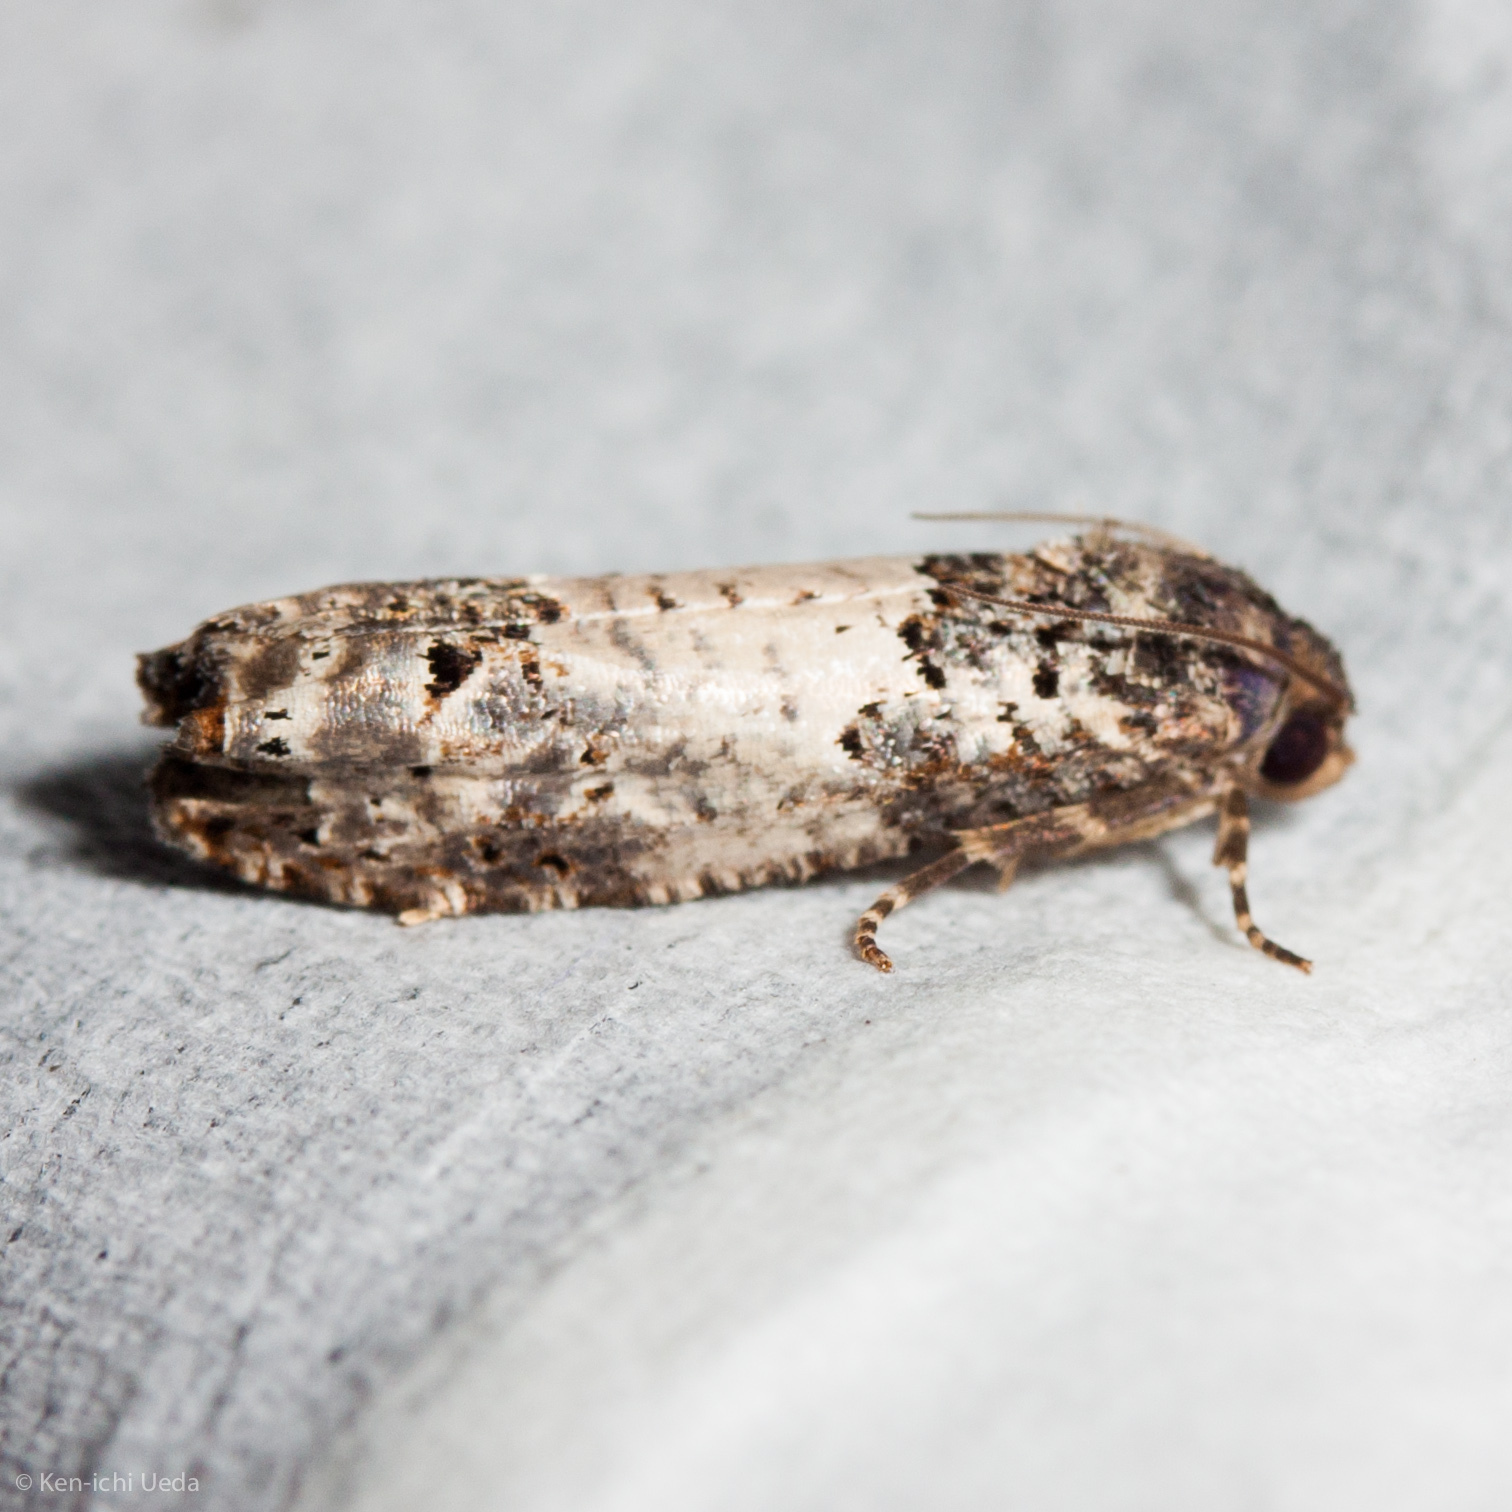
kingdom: Animalia
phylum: Arthropoda
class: Insecta
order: Lepidoptera
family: Tortricidae
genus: Epiblema
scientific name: Epiblema carolinana
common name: Gray-blotched epiblema moth
